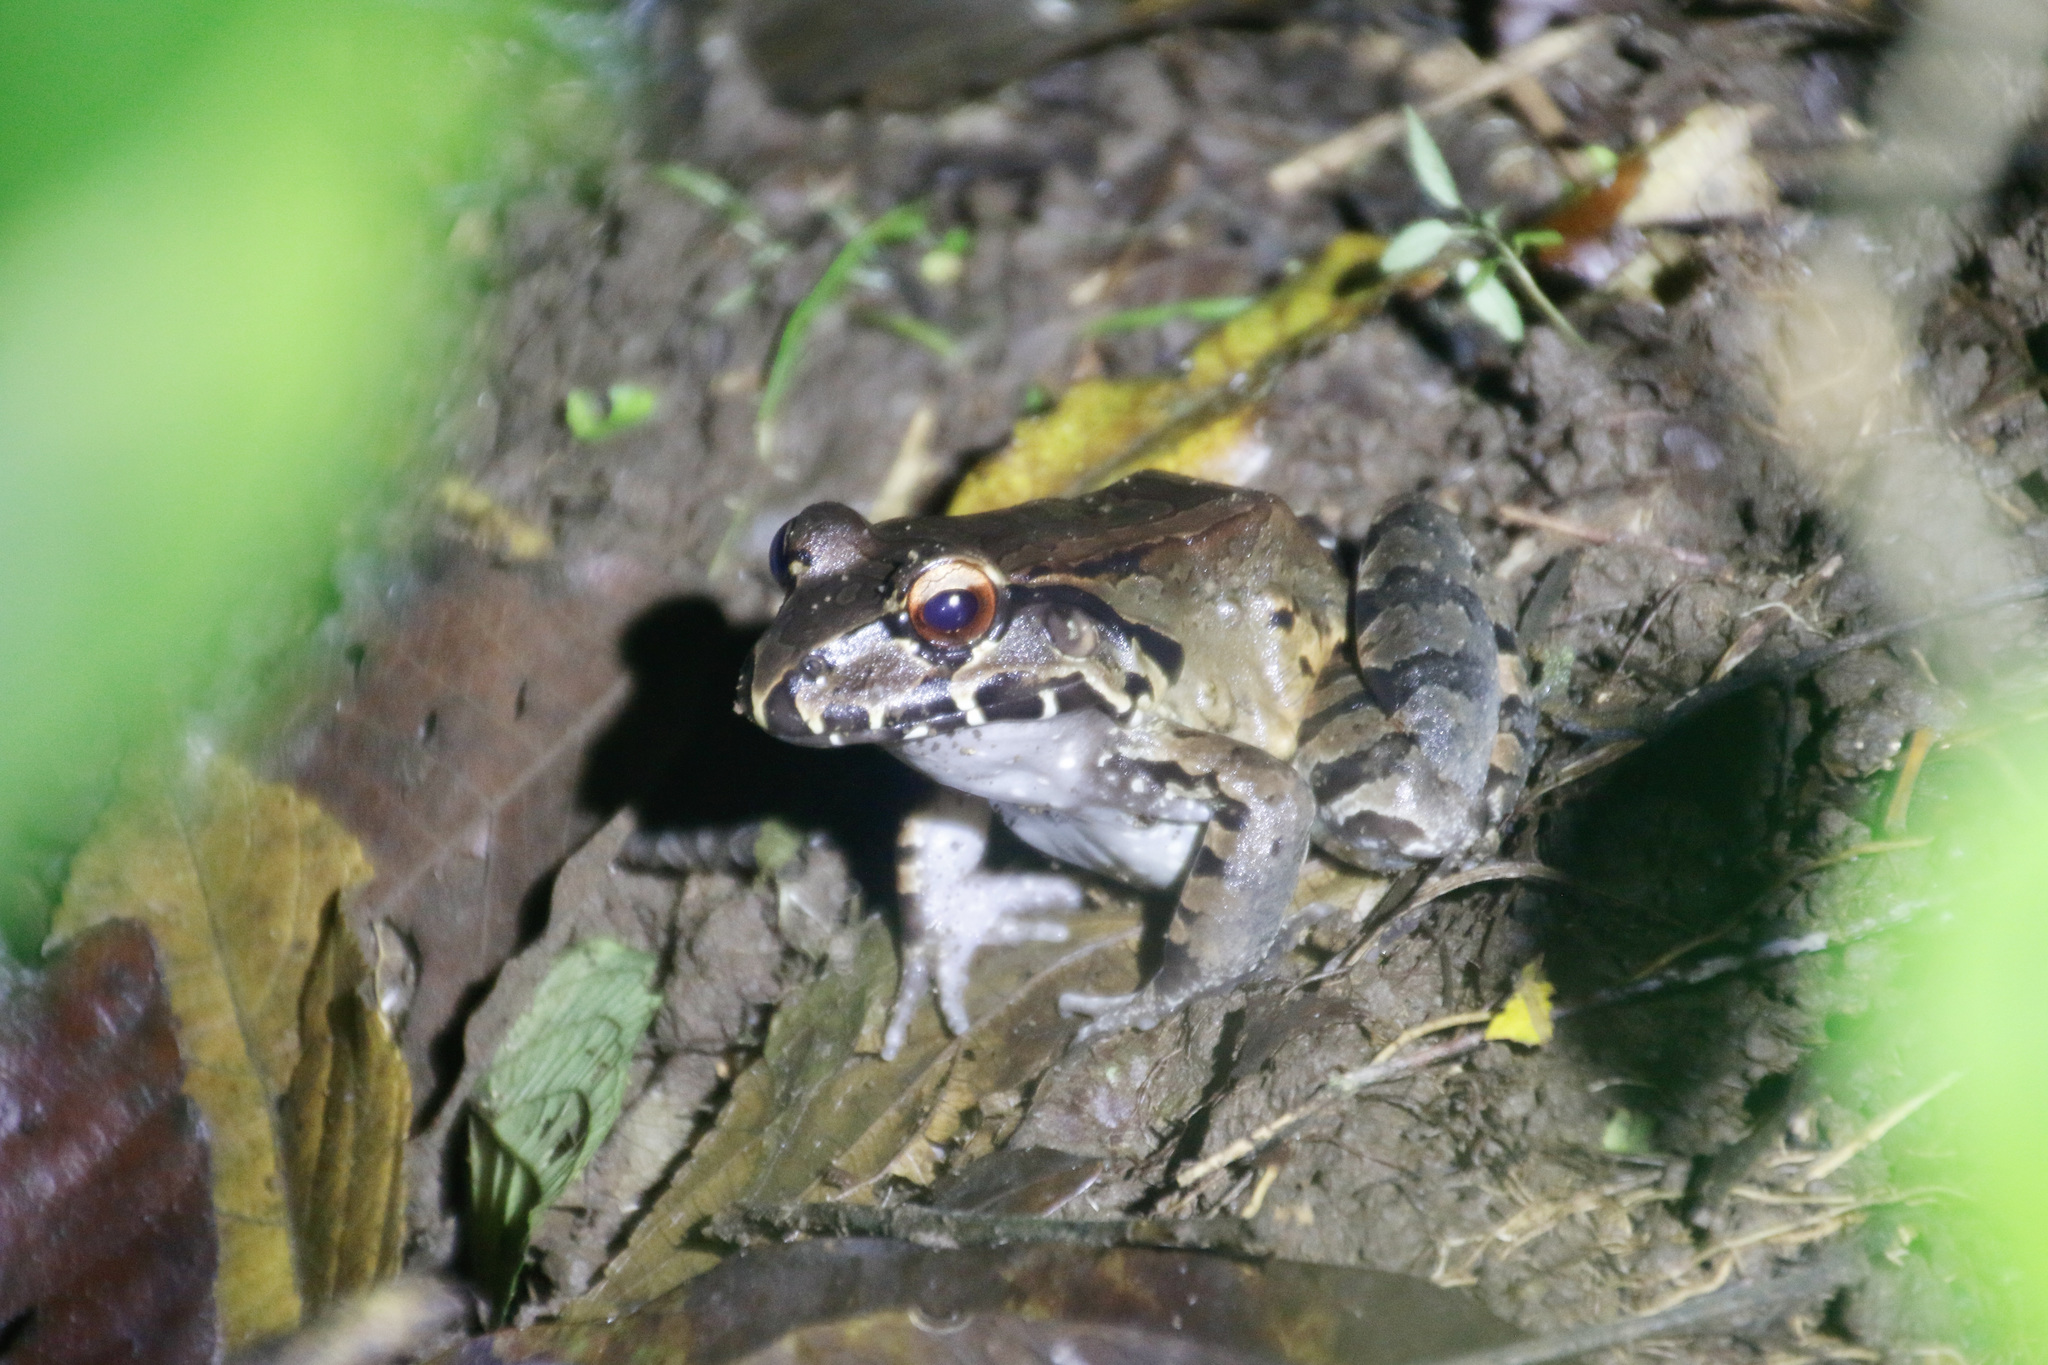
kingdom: Animalia
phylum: Chordata
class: Amphibia
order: Anura
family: Leptodactylidae
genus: Leptodactylus
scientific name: Leptodactylus savagei
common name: Savage's thin-toed frog
